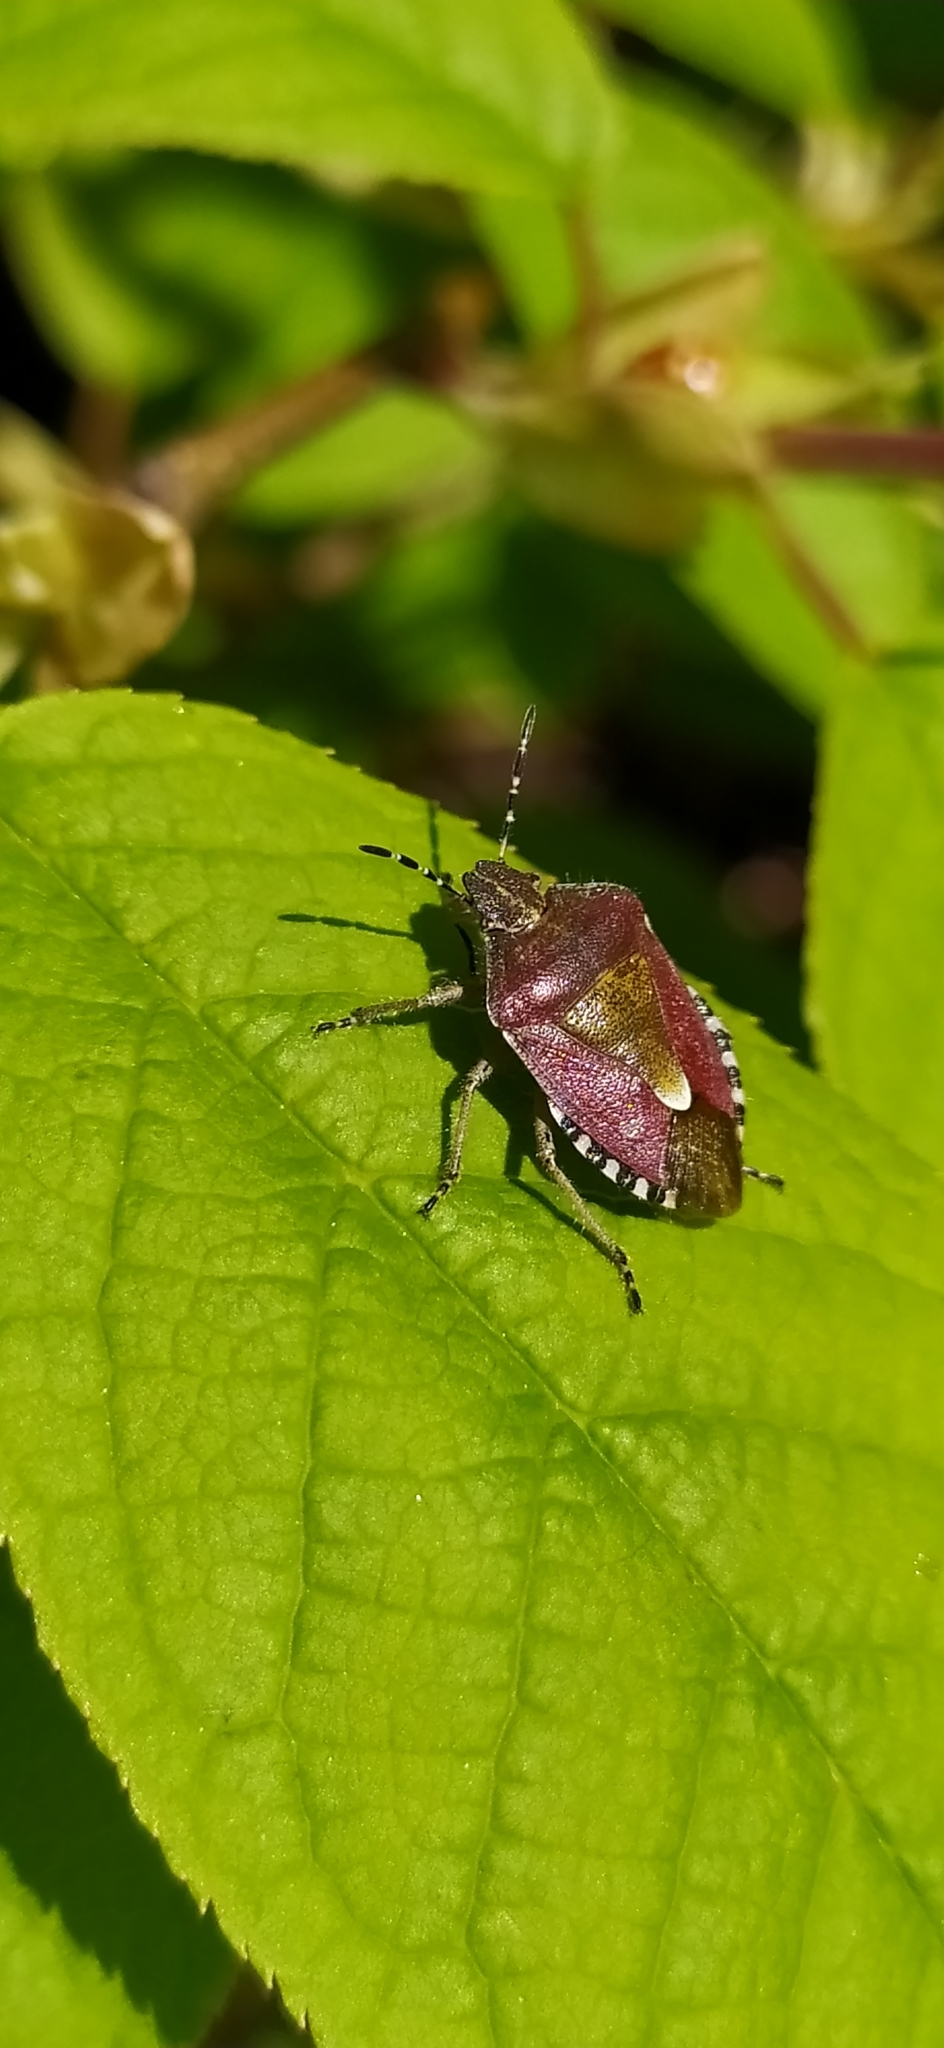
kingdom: Animalia
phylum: Arthropoda
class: Insecta
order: Hemiptera
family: Pentatomidae
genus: Dolycoris
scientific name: Dolycoris baccarum
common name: Sloe bug
